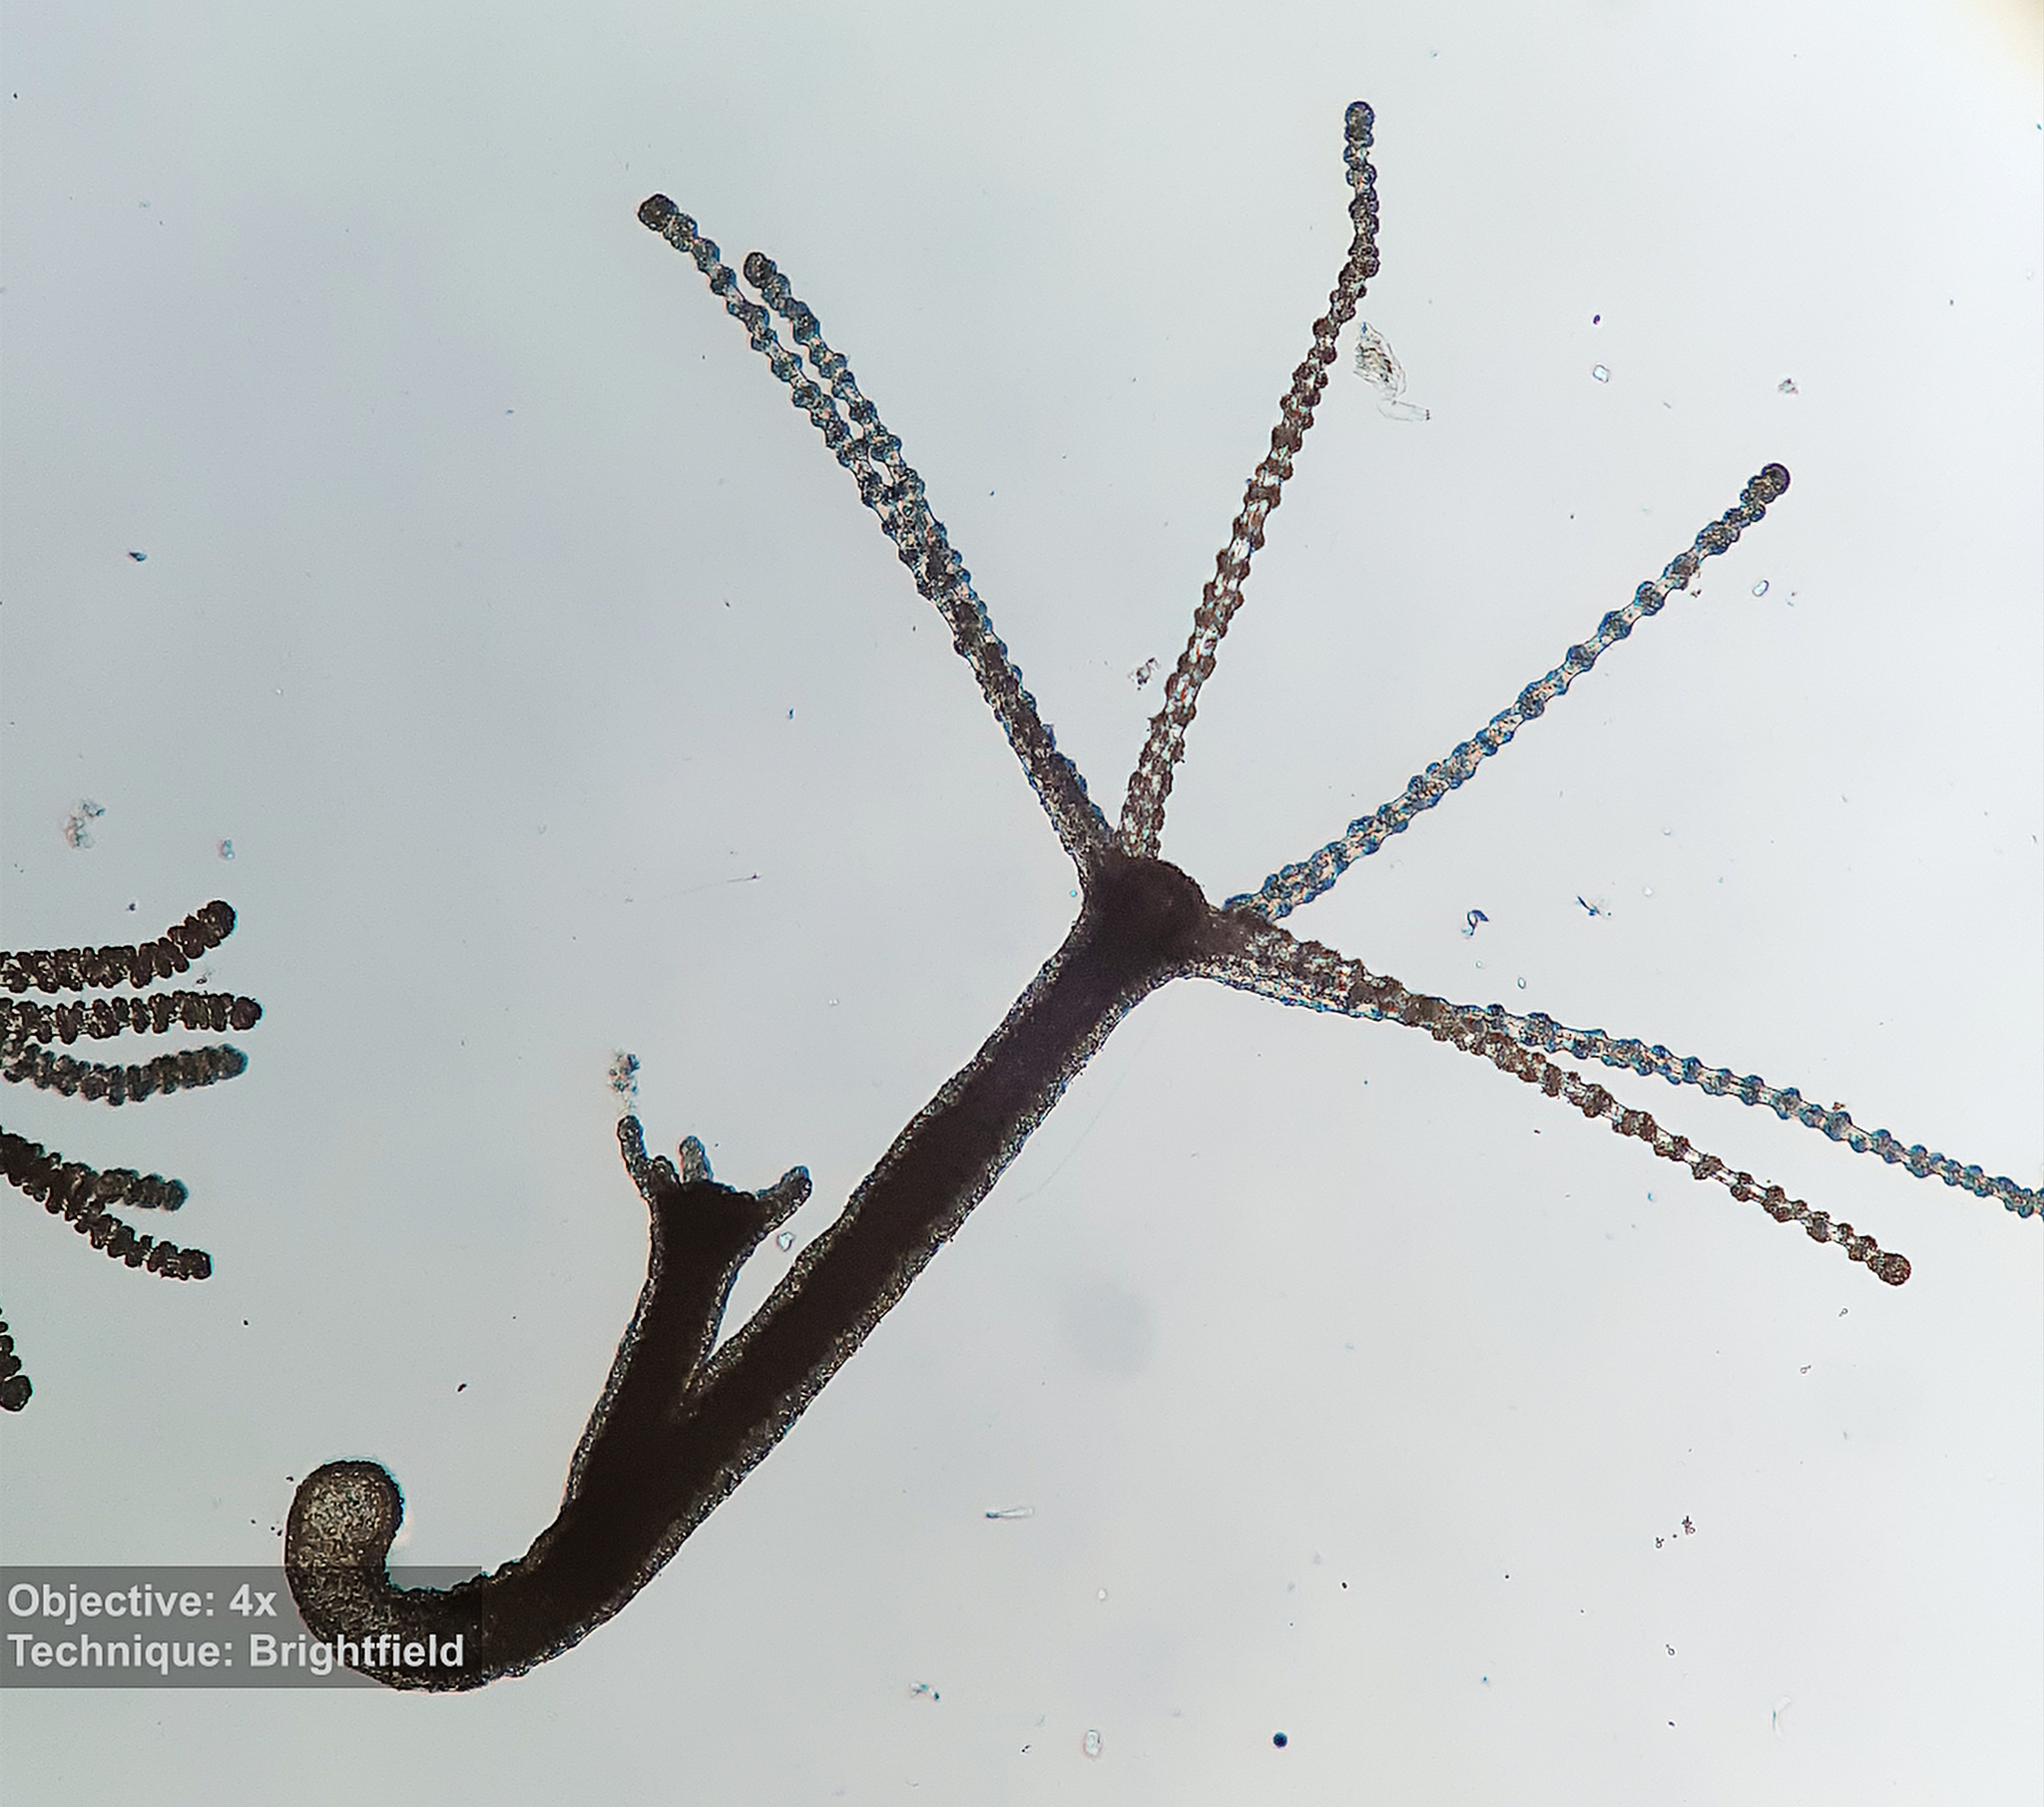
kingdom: Animalia
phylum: Cnidaria
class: Hydrozoa
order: Anthoathecata
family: Hydridae
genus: Hydra
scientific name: Hydra
